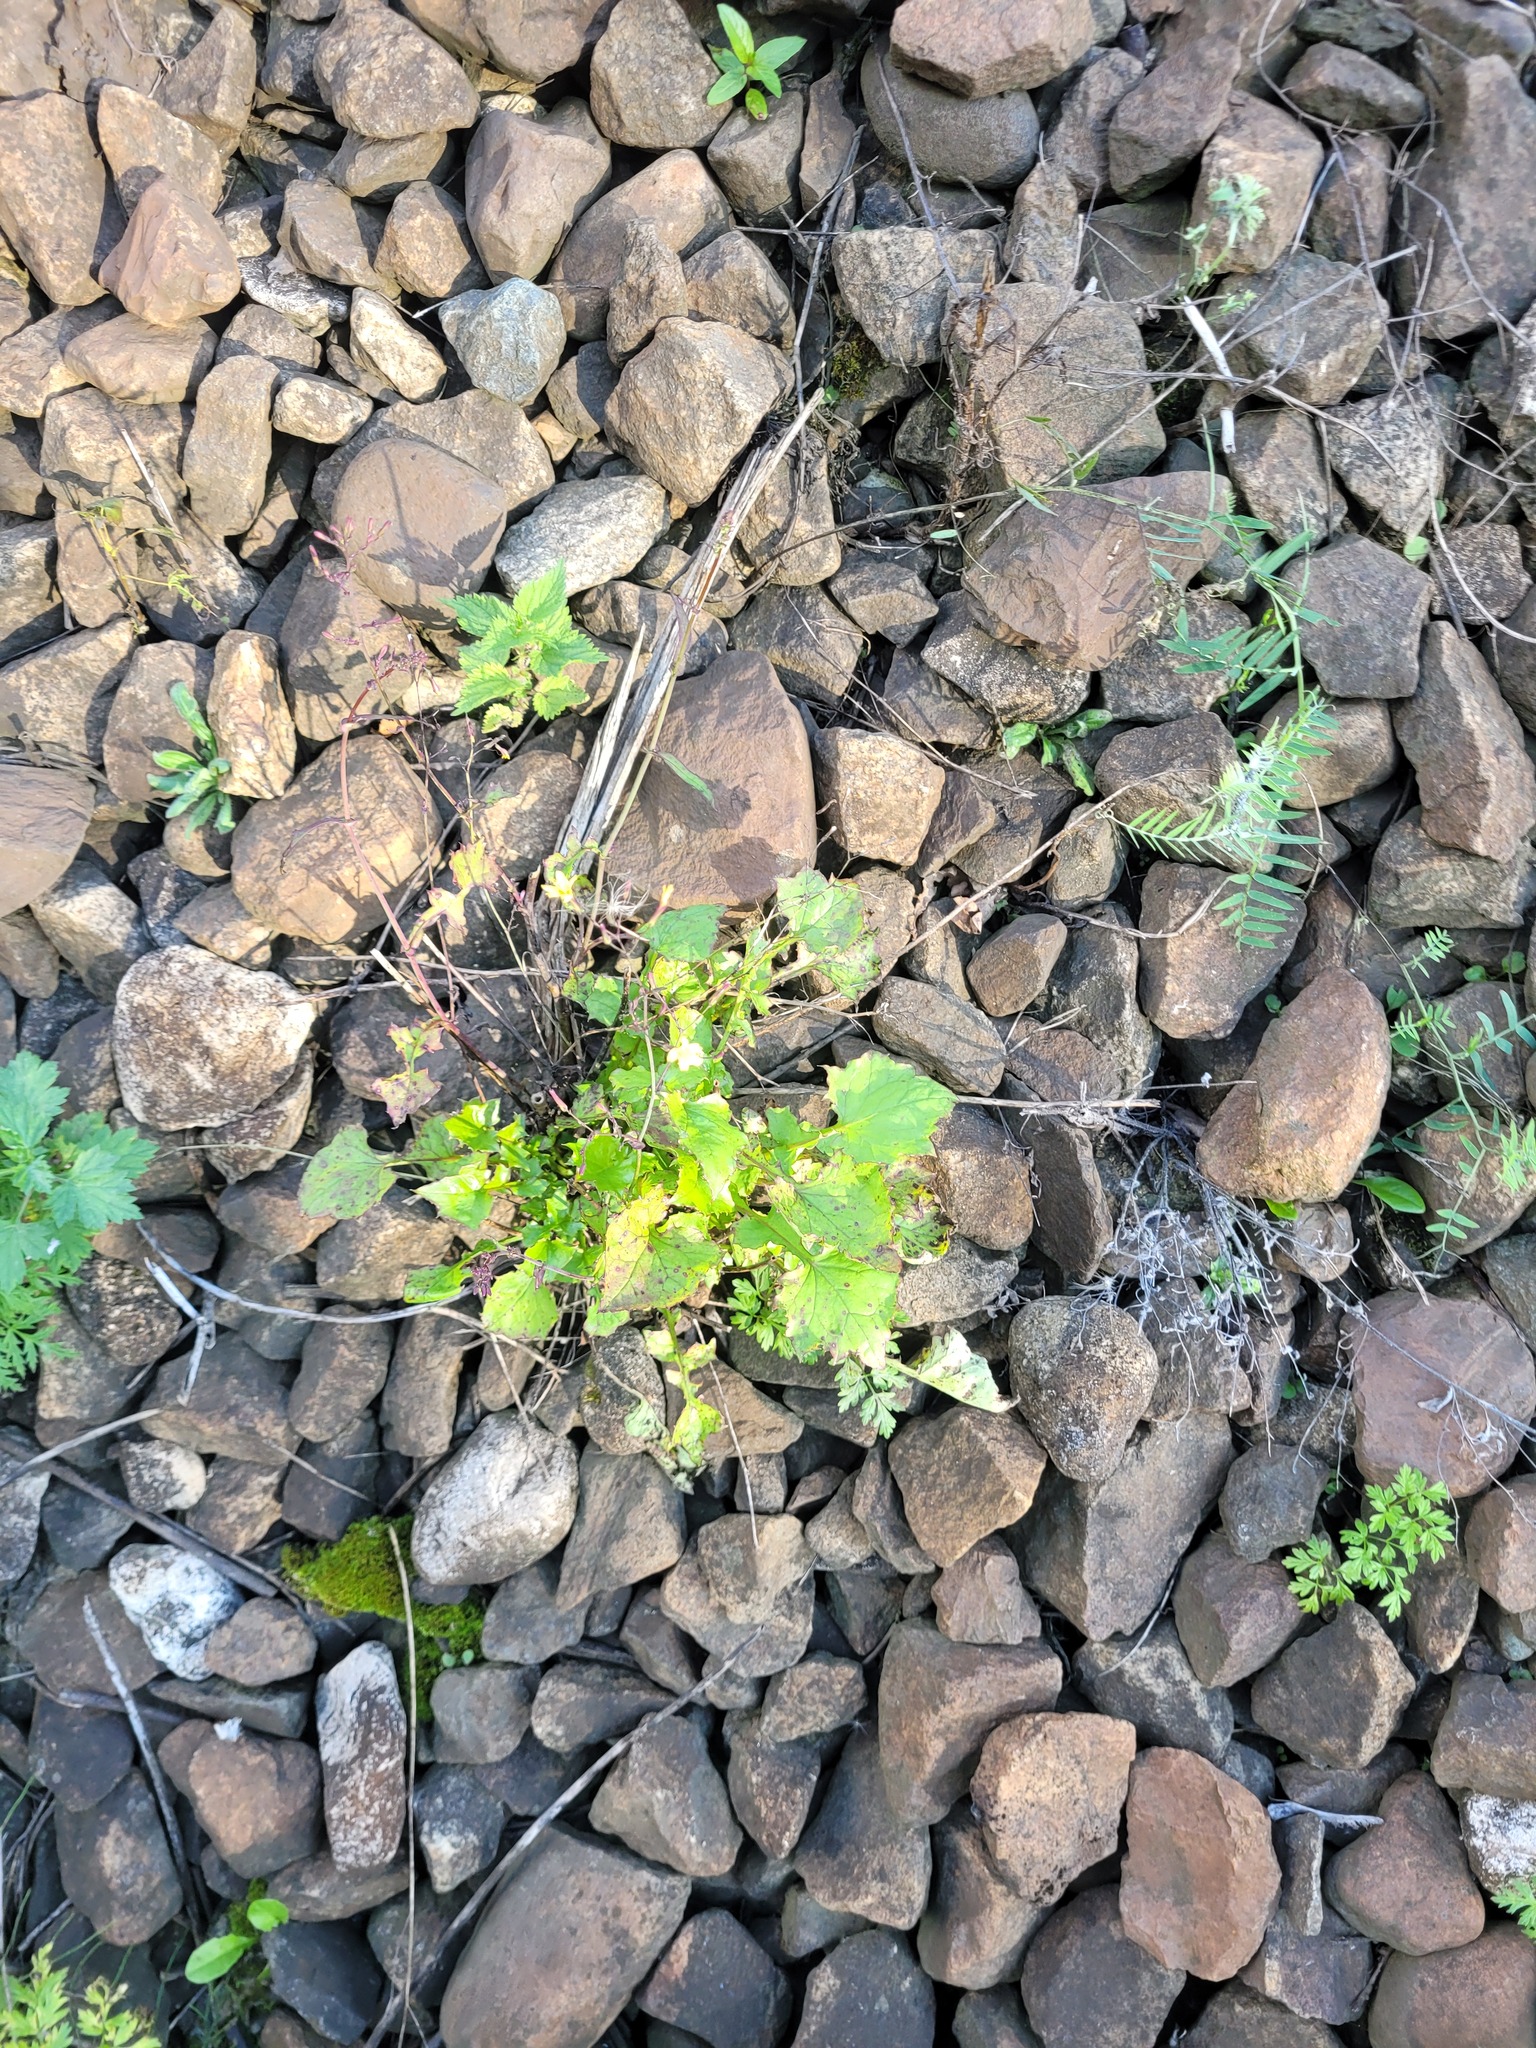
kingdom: Plantae
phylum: Tracheophyta
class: Magnoliopsida
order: Asterales
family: Asteraceae
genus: Mycelis
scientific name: Mycelis muralis
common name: Wall lettuce
